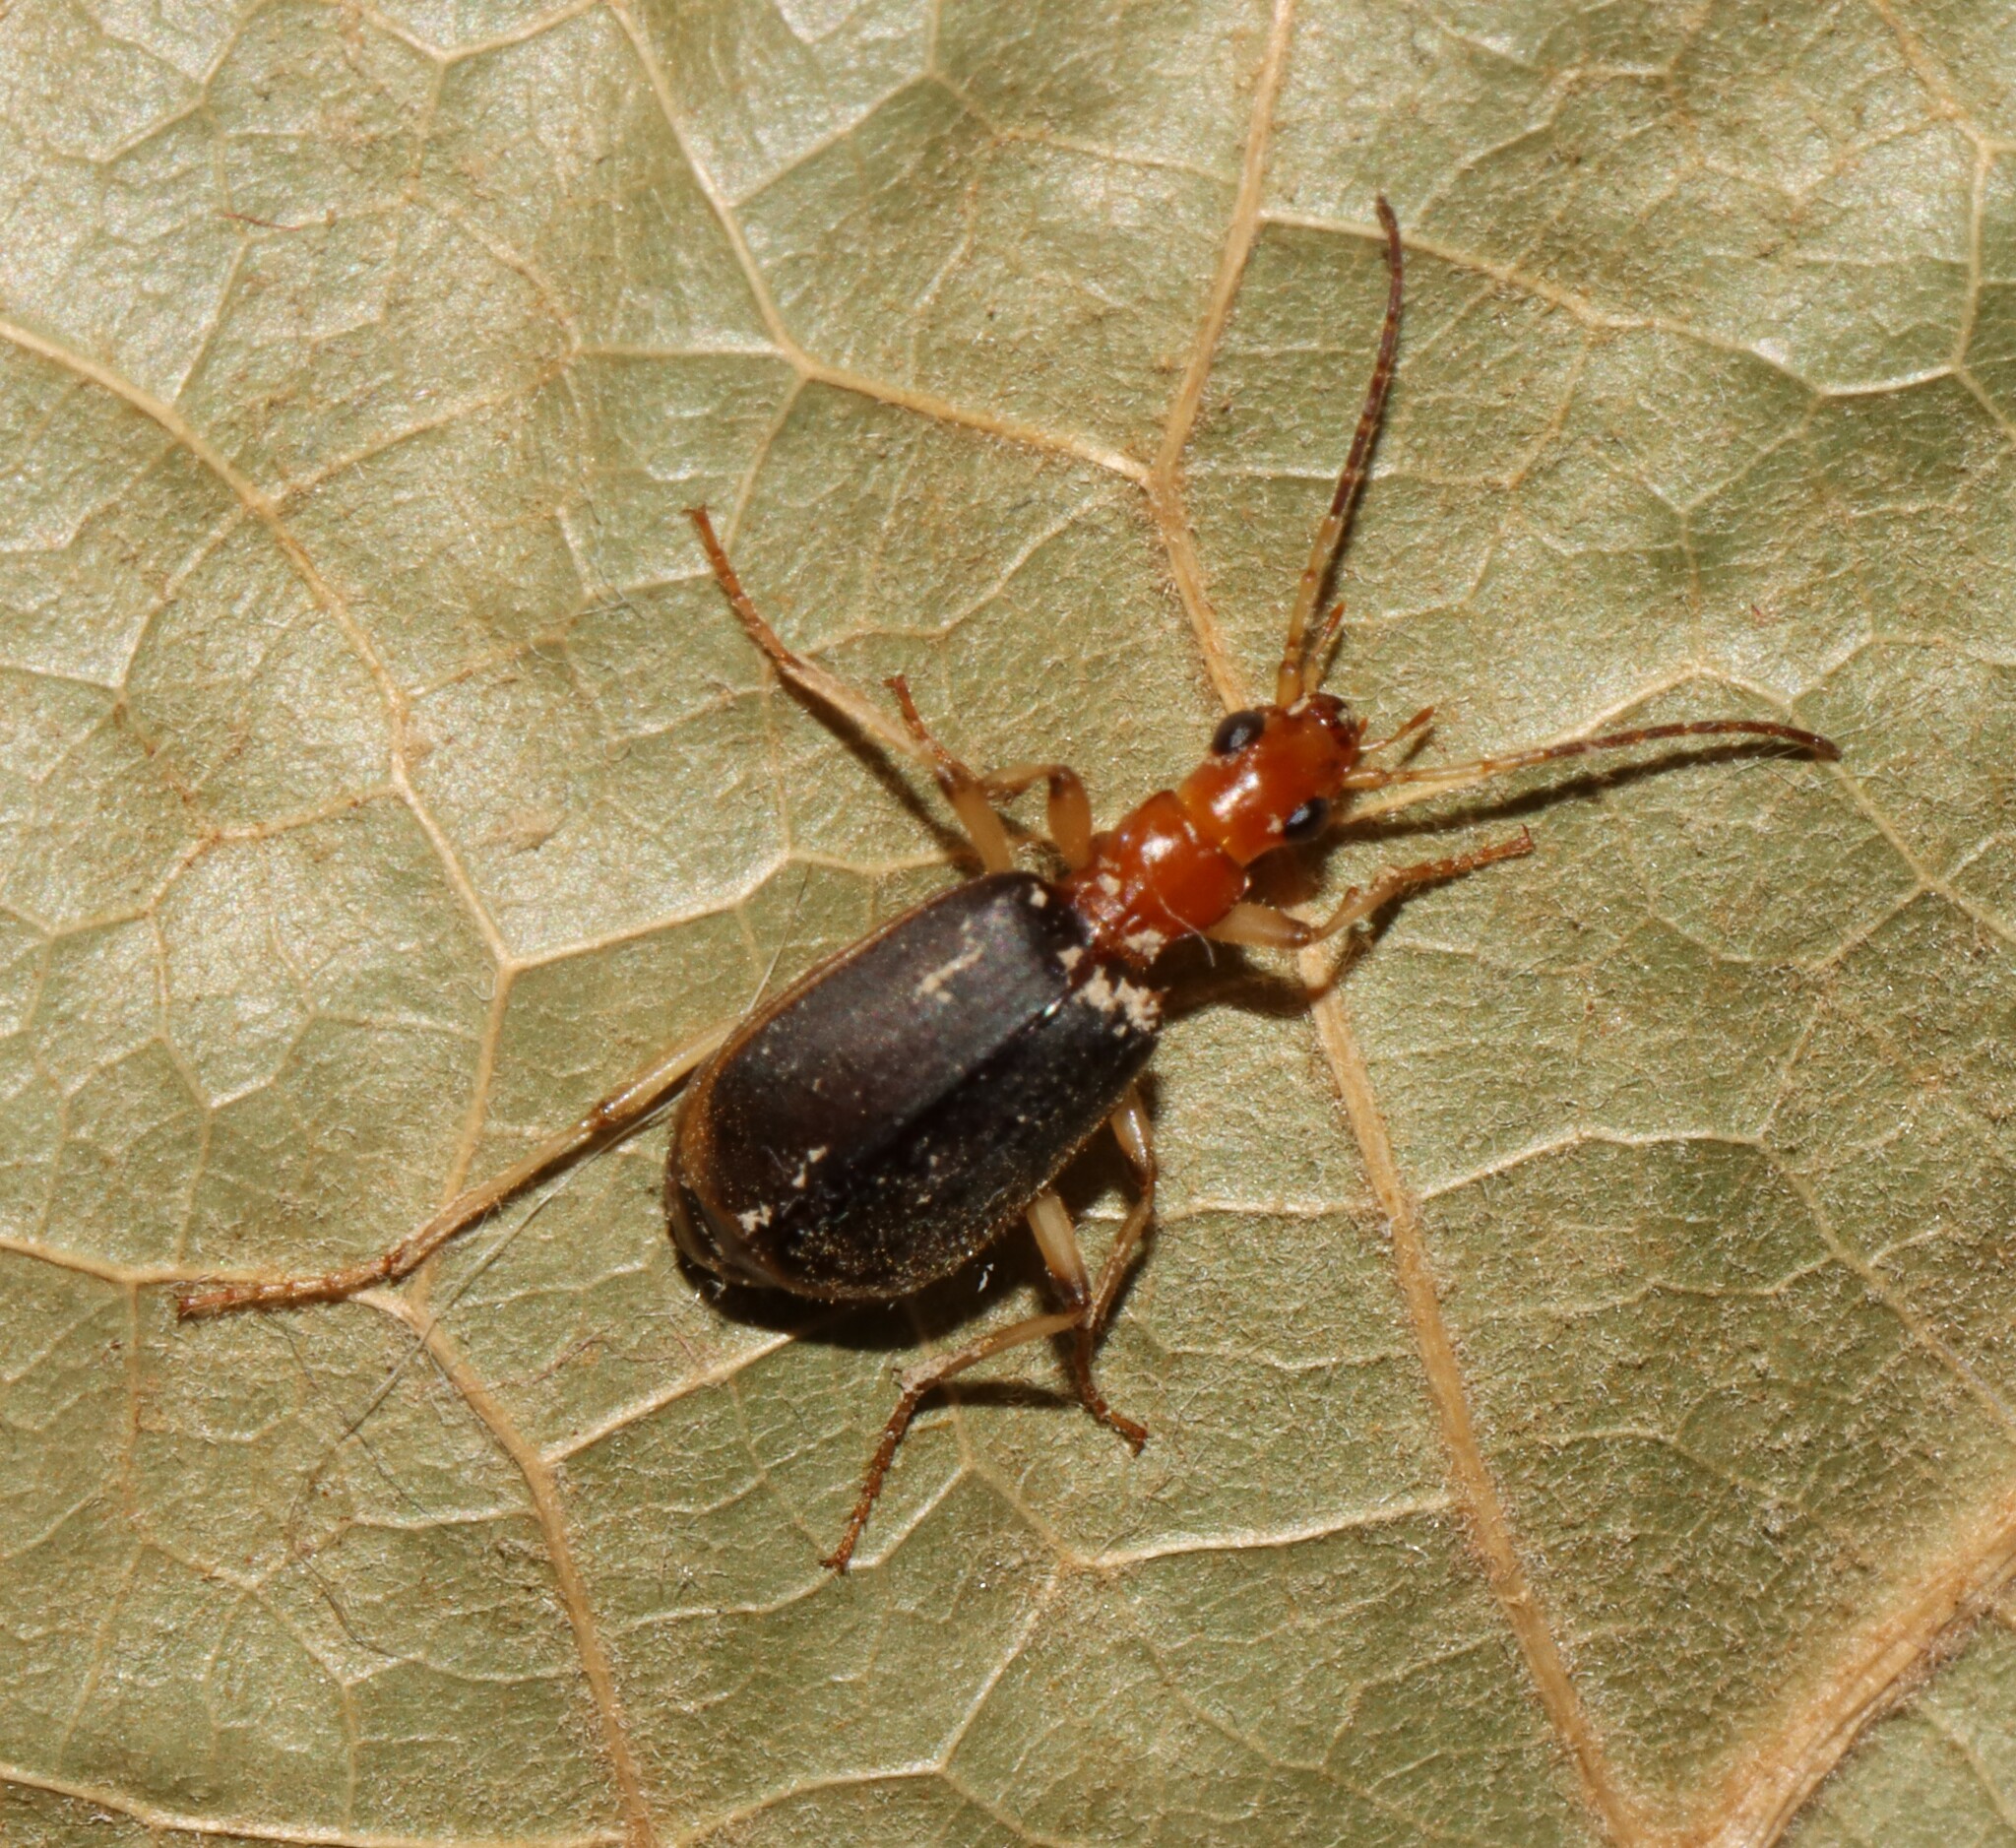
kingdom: Animalia
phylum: Arthropoda
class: Insecta
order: Coleoptera
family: Carabidae
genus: Brachinus
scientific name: Brachinus adustipennis
